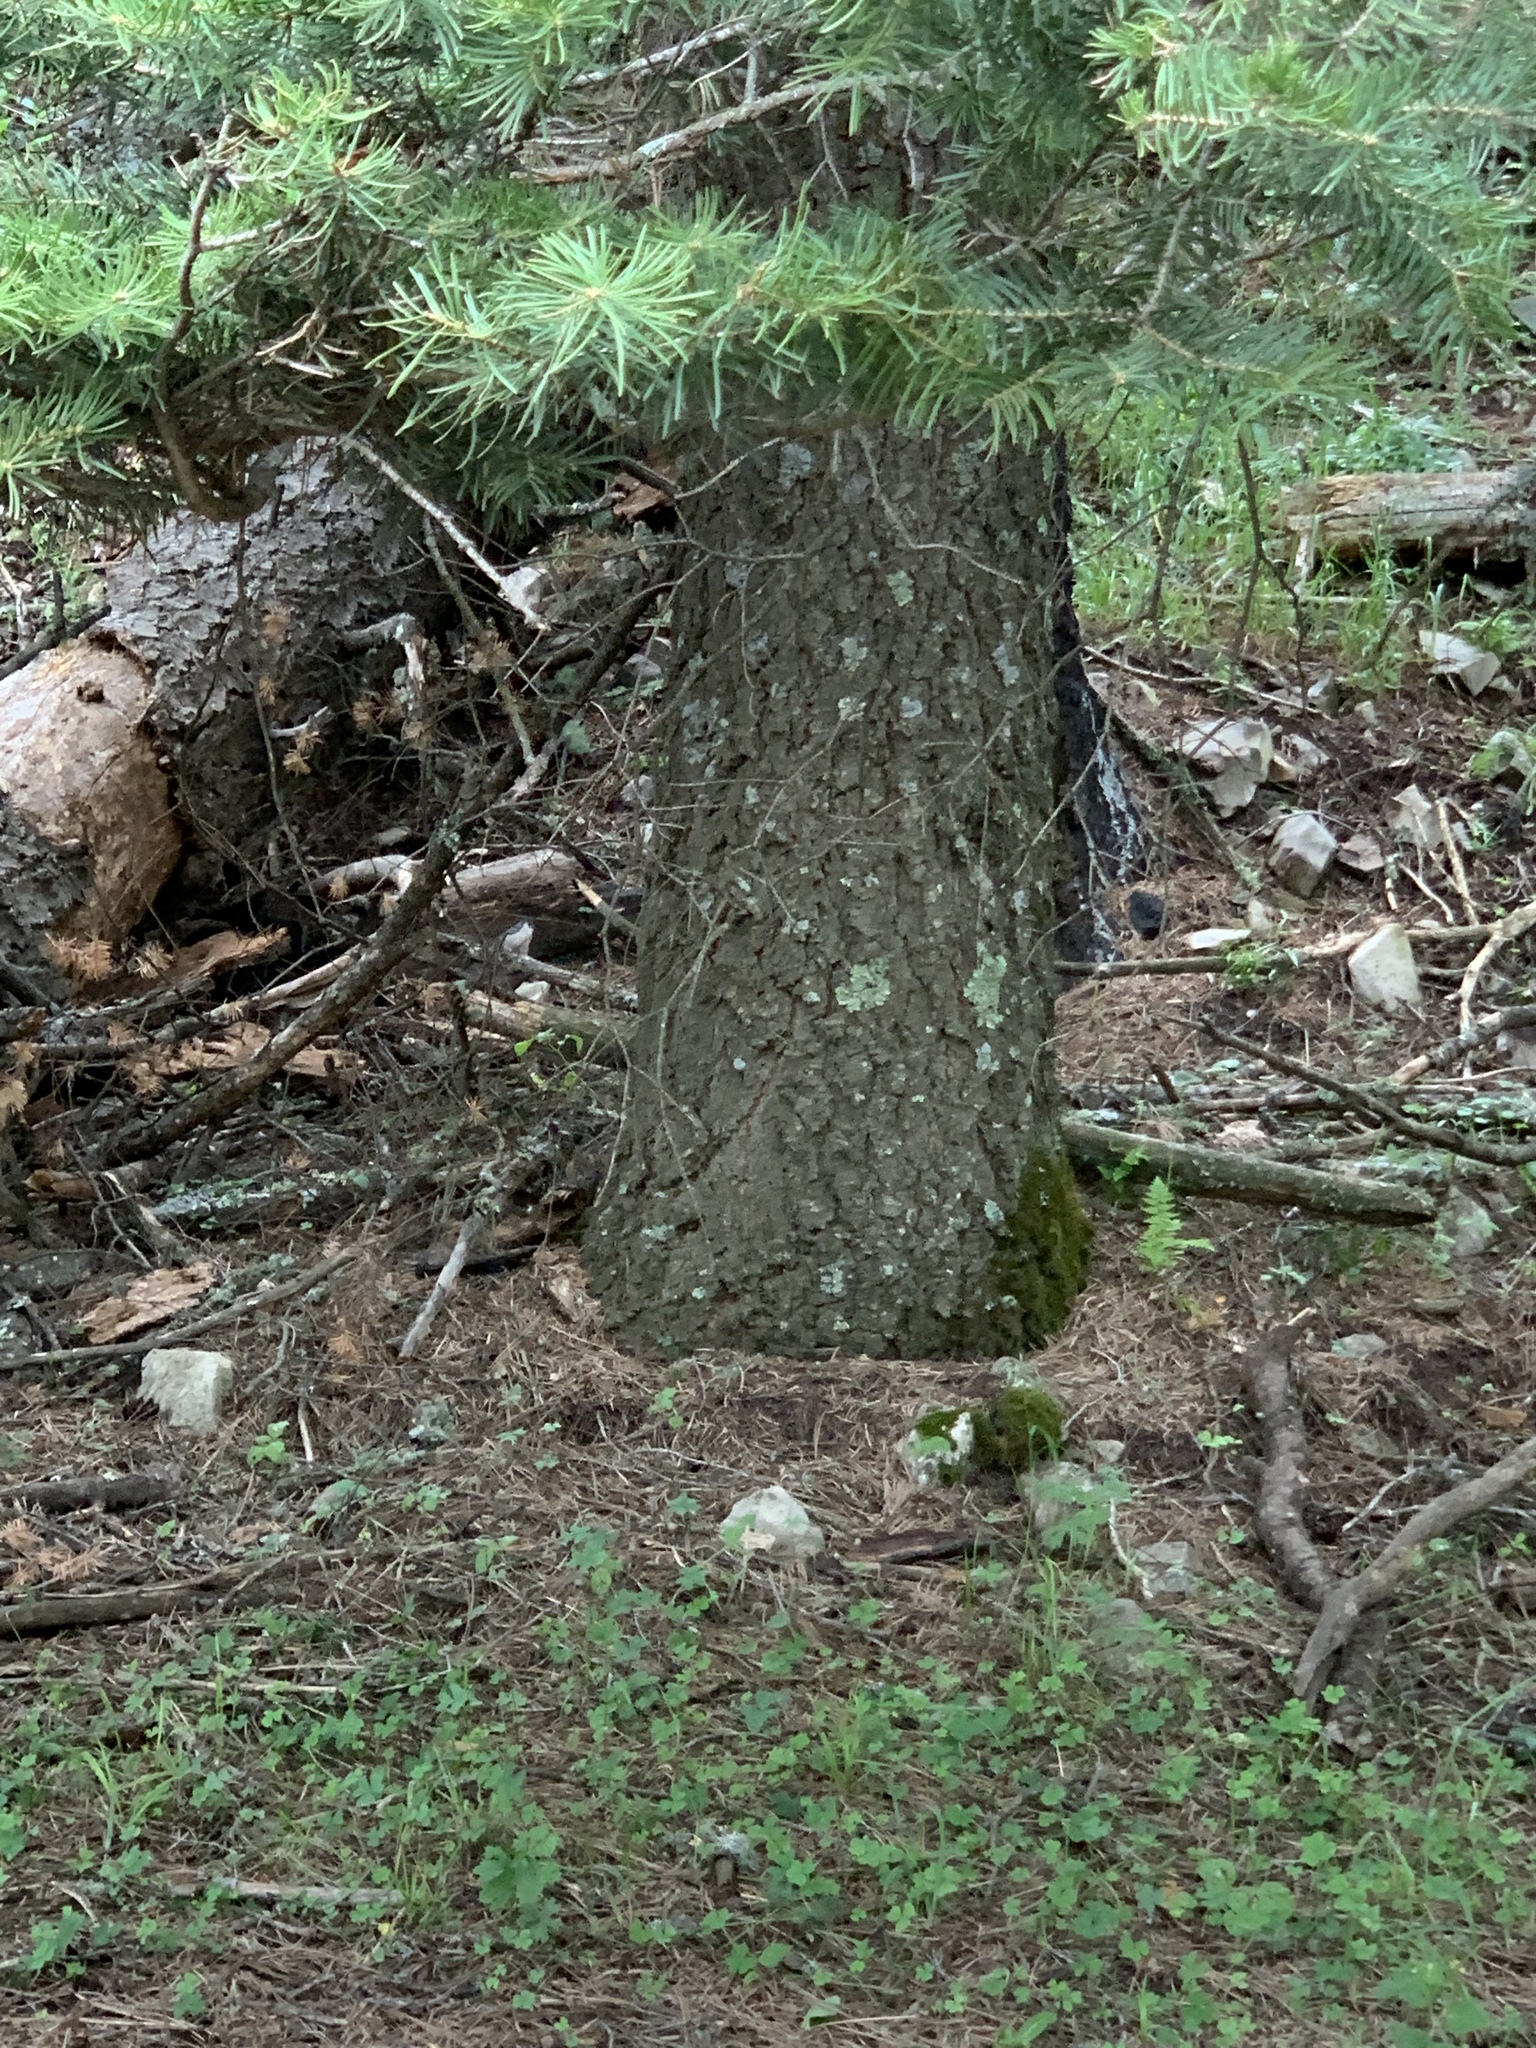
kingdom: Plantae
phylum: Tracheophyta
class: Pinopsida
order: Pinales
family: Pinaceae
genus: Abies
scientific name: Abies concolor
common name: Colorado fir
